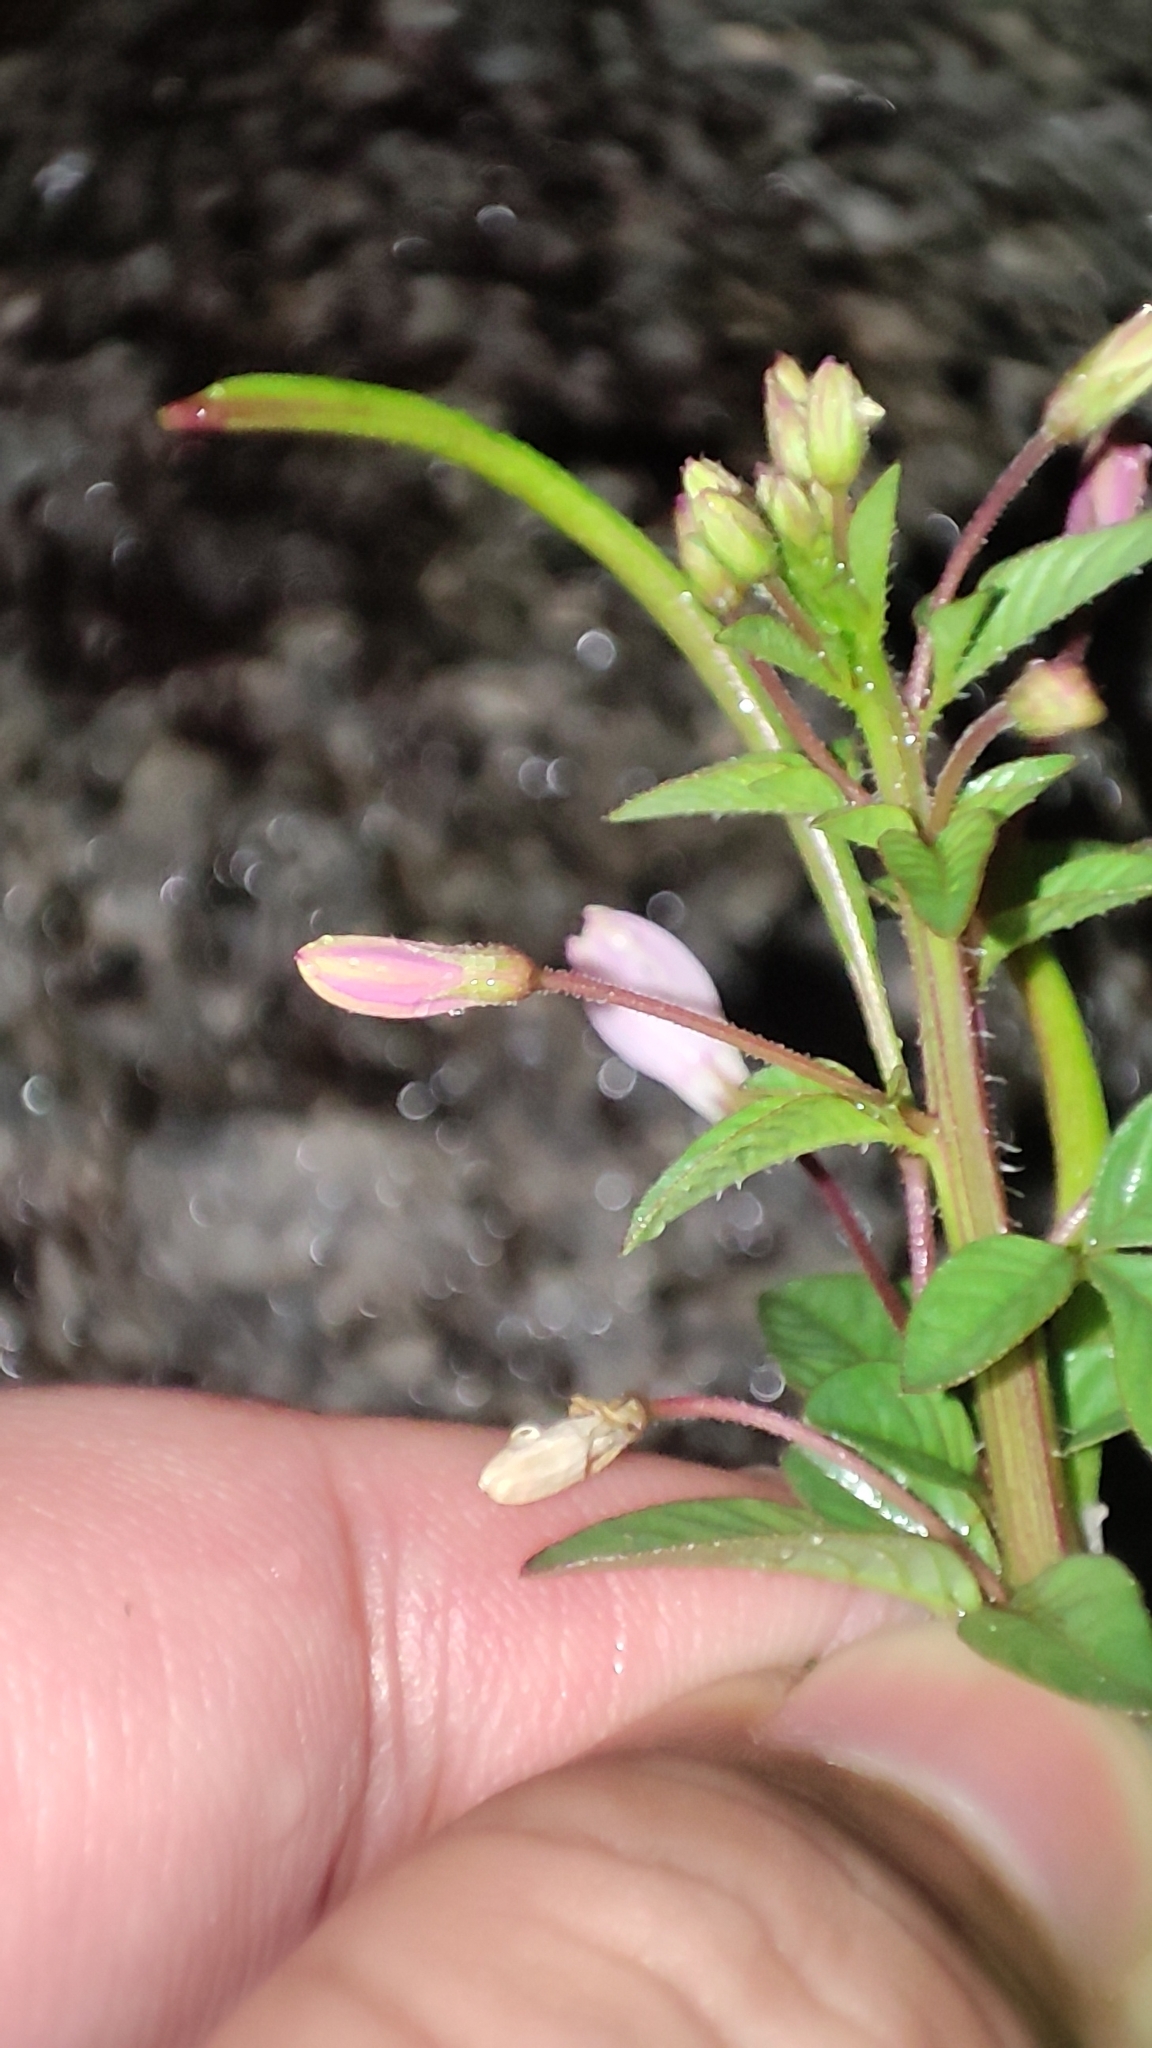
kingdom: Plantae
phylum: Tracheophyta
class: Magnoliopsida
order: Brassicales
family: Cleomaceae
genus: Sieruela
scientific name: Sieruela rutidosperma
